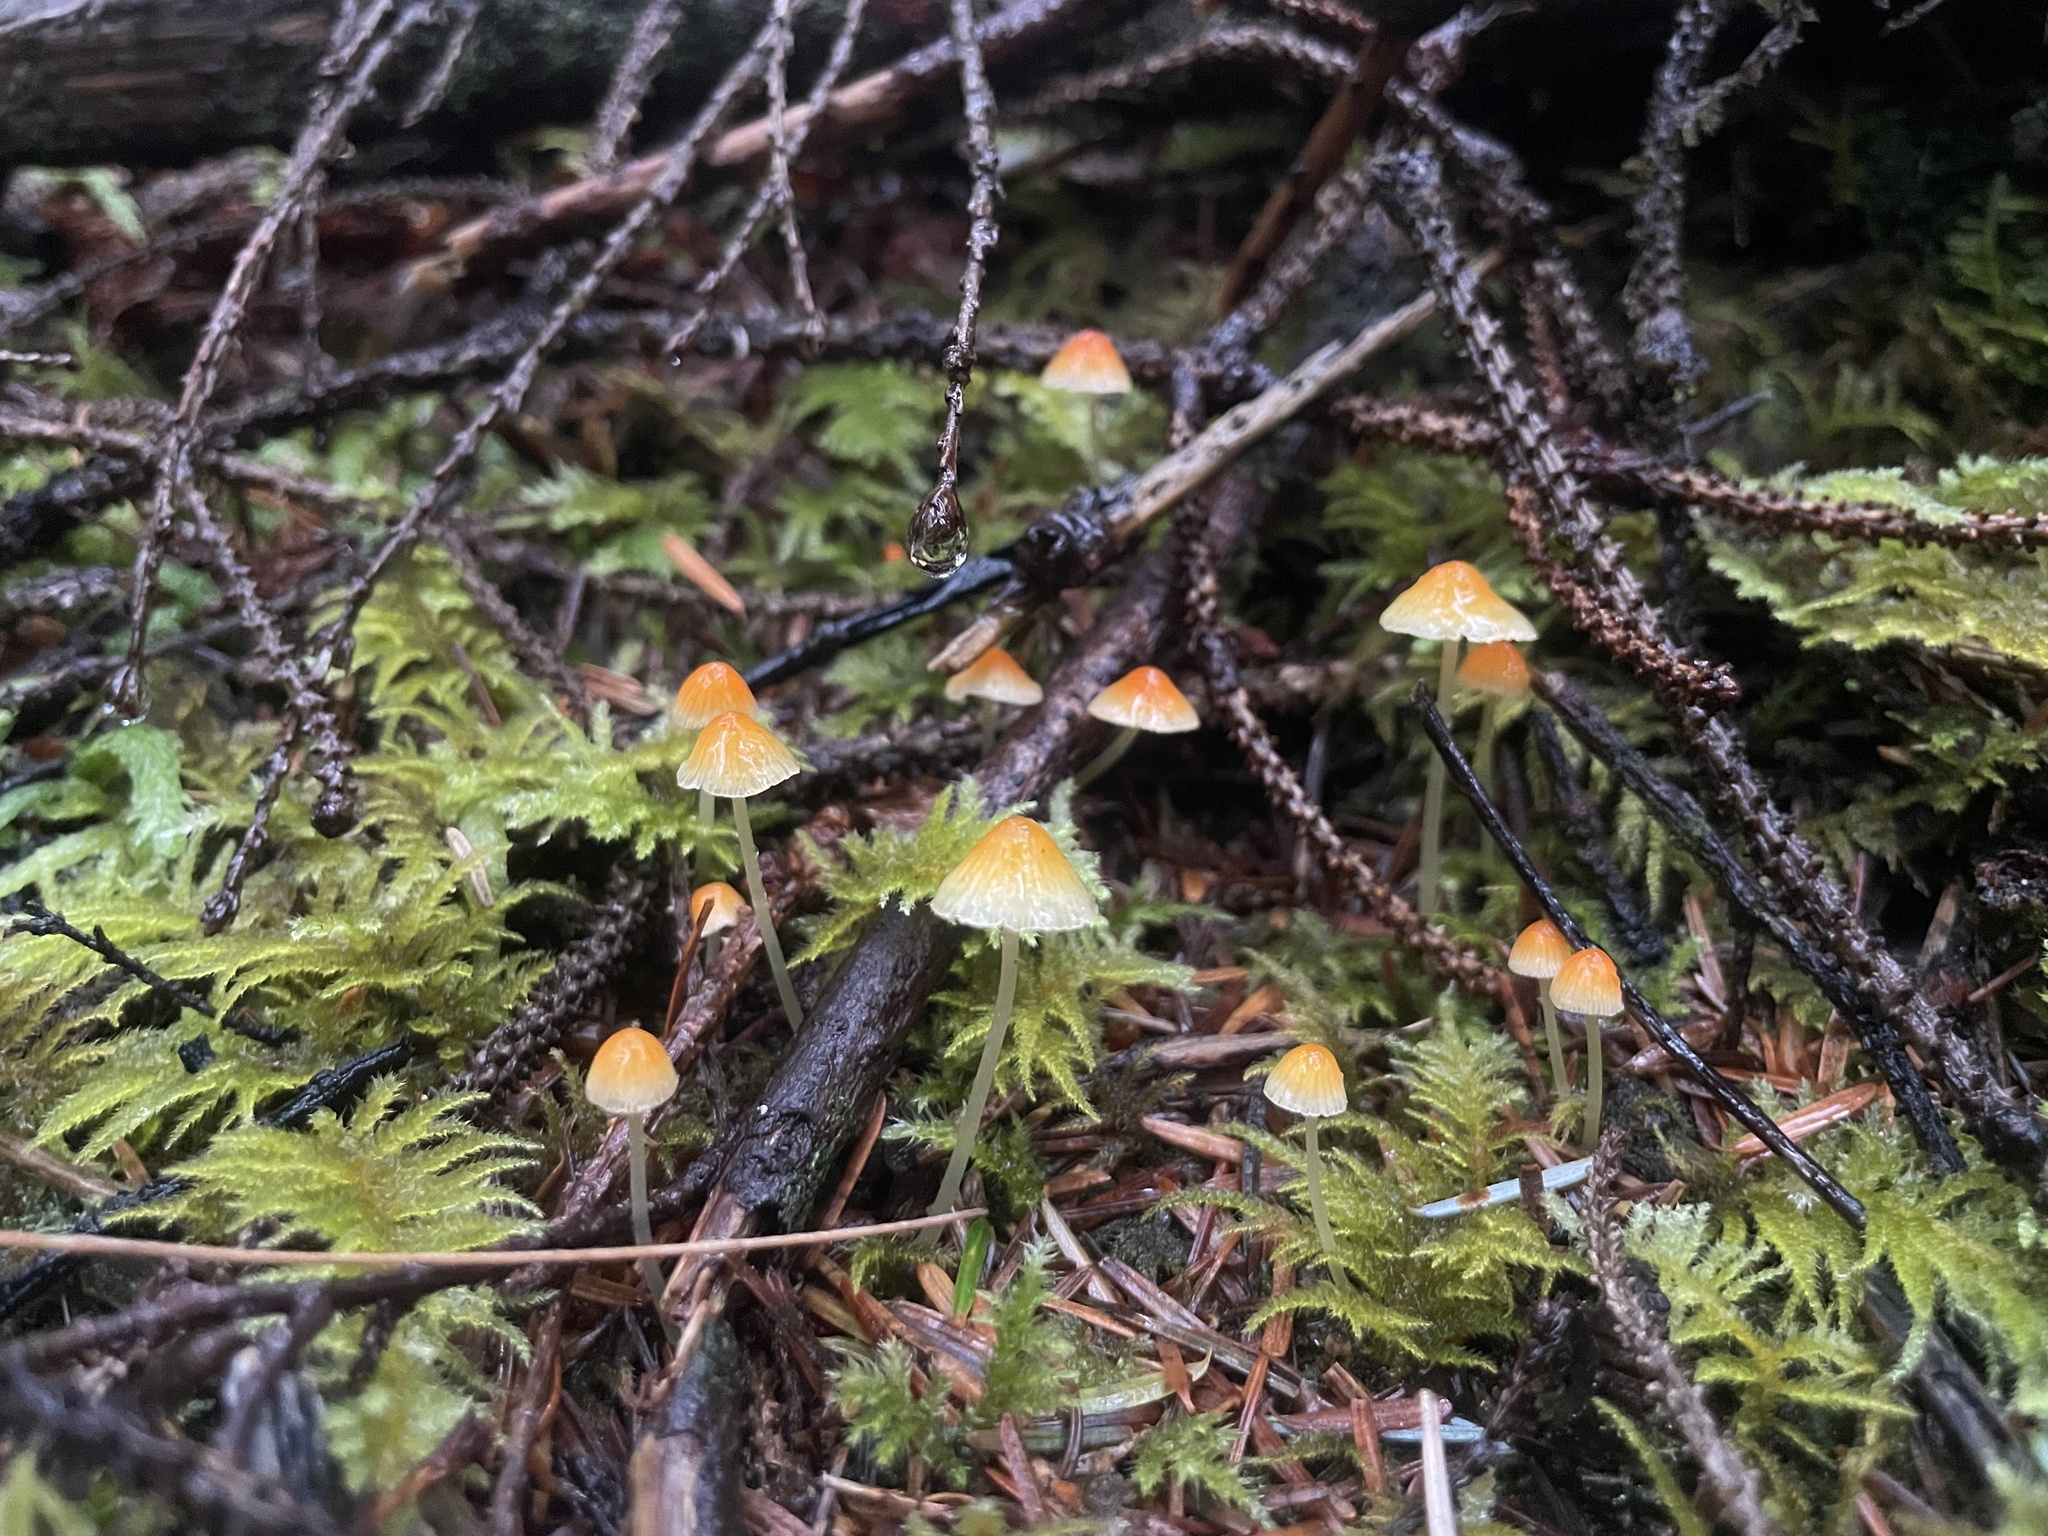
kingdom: Fungi
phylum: Basidiomycota
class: Agaricomycetes
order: Agaricales
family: Mycenaceae
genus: Atheniella
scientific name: Atheniella aurantiidisca
